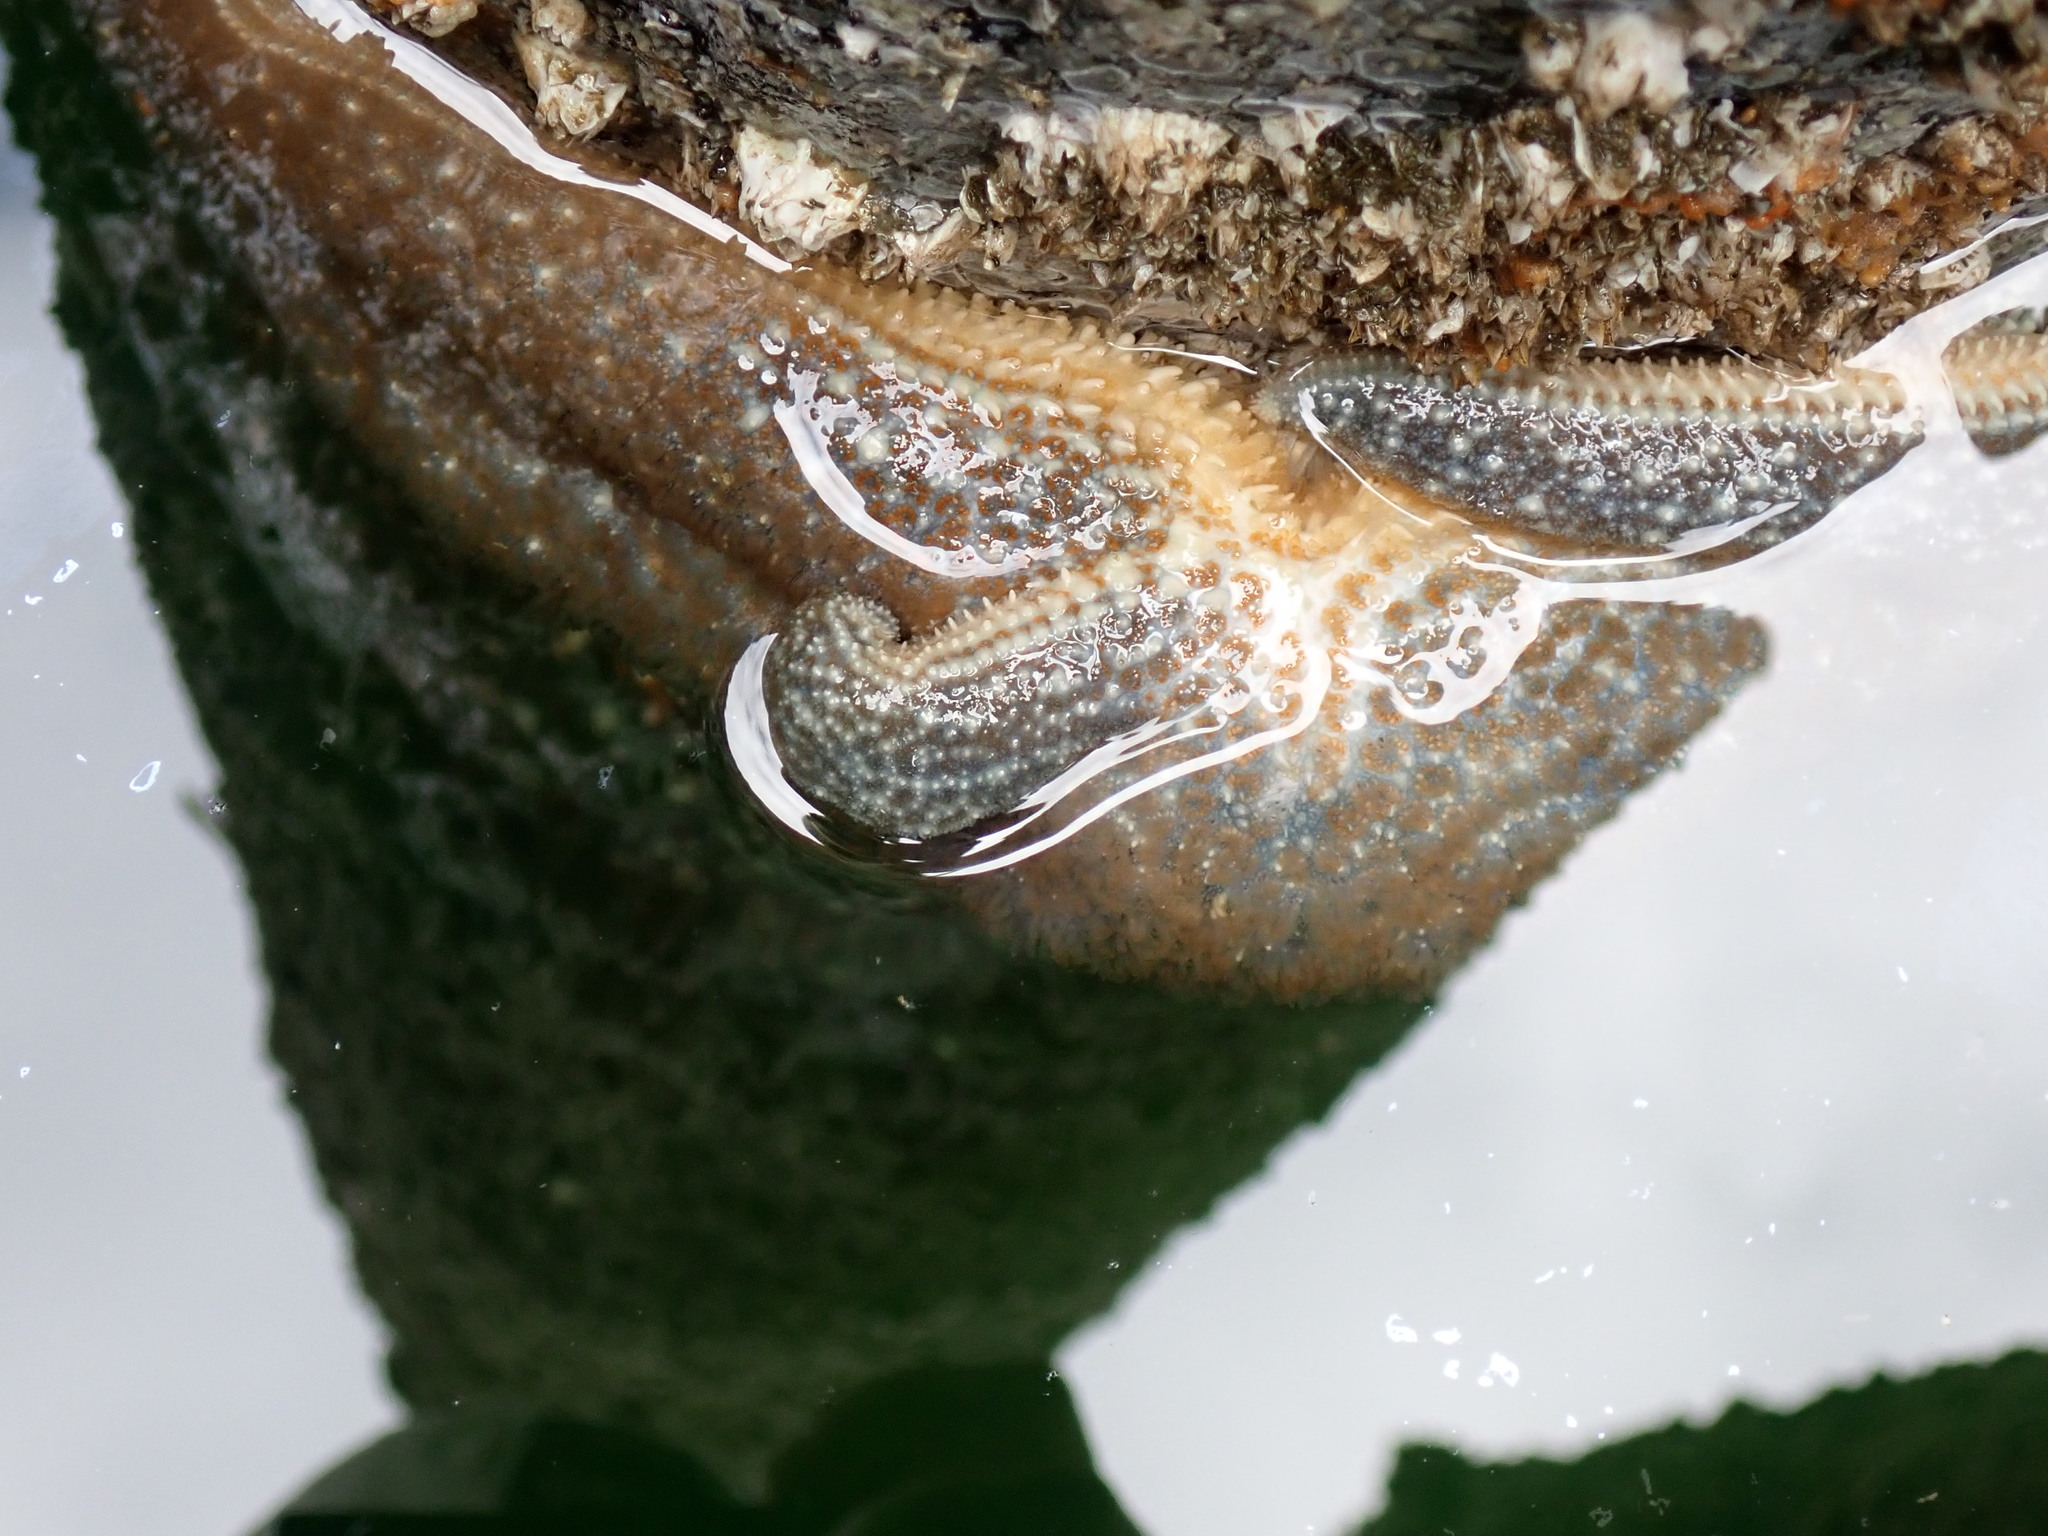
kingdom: Animalia
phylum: Echinodermata
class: Asteroidea
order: Forcipulatida
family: Asteriidae
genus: Evasterias
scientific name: Evasterias troschelii
